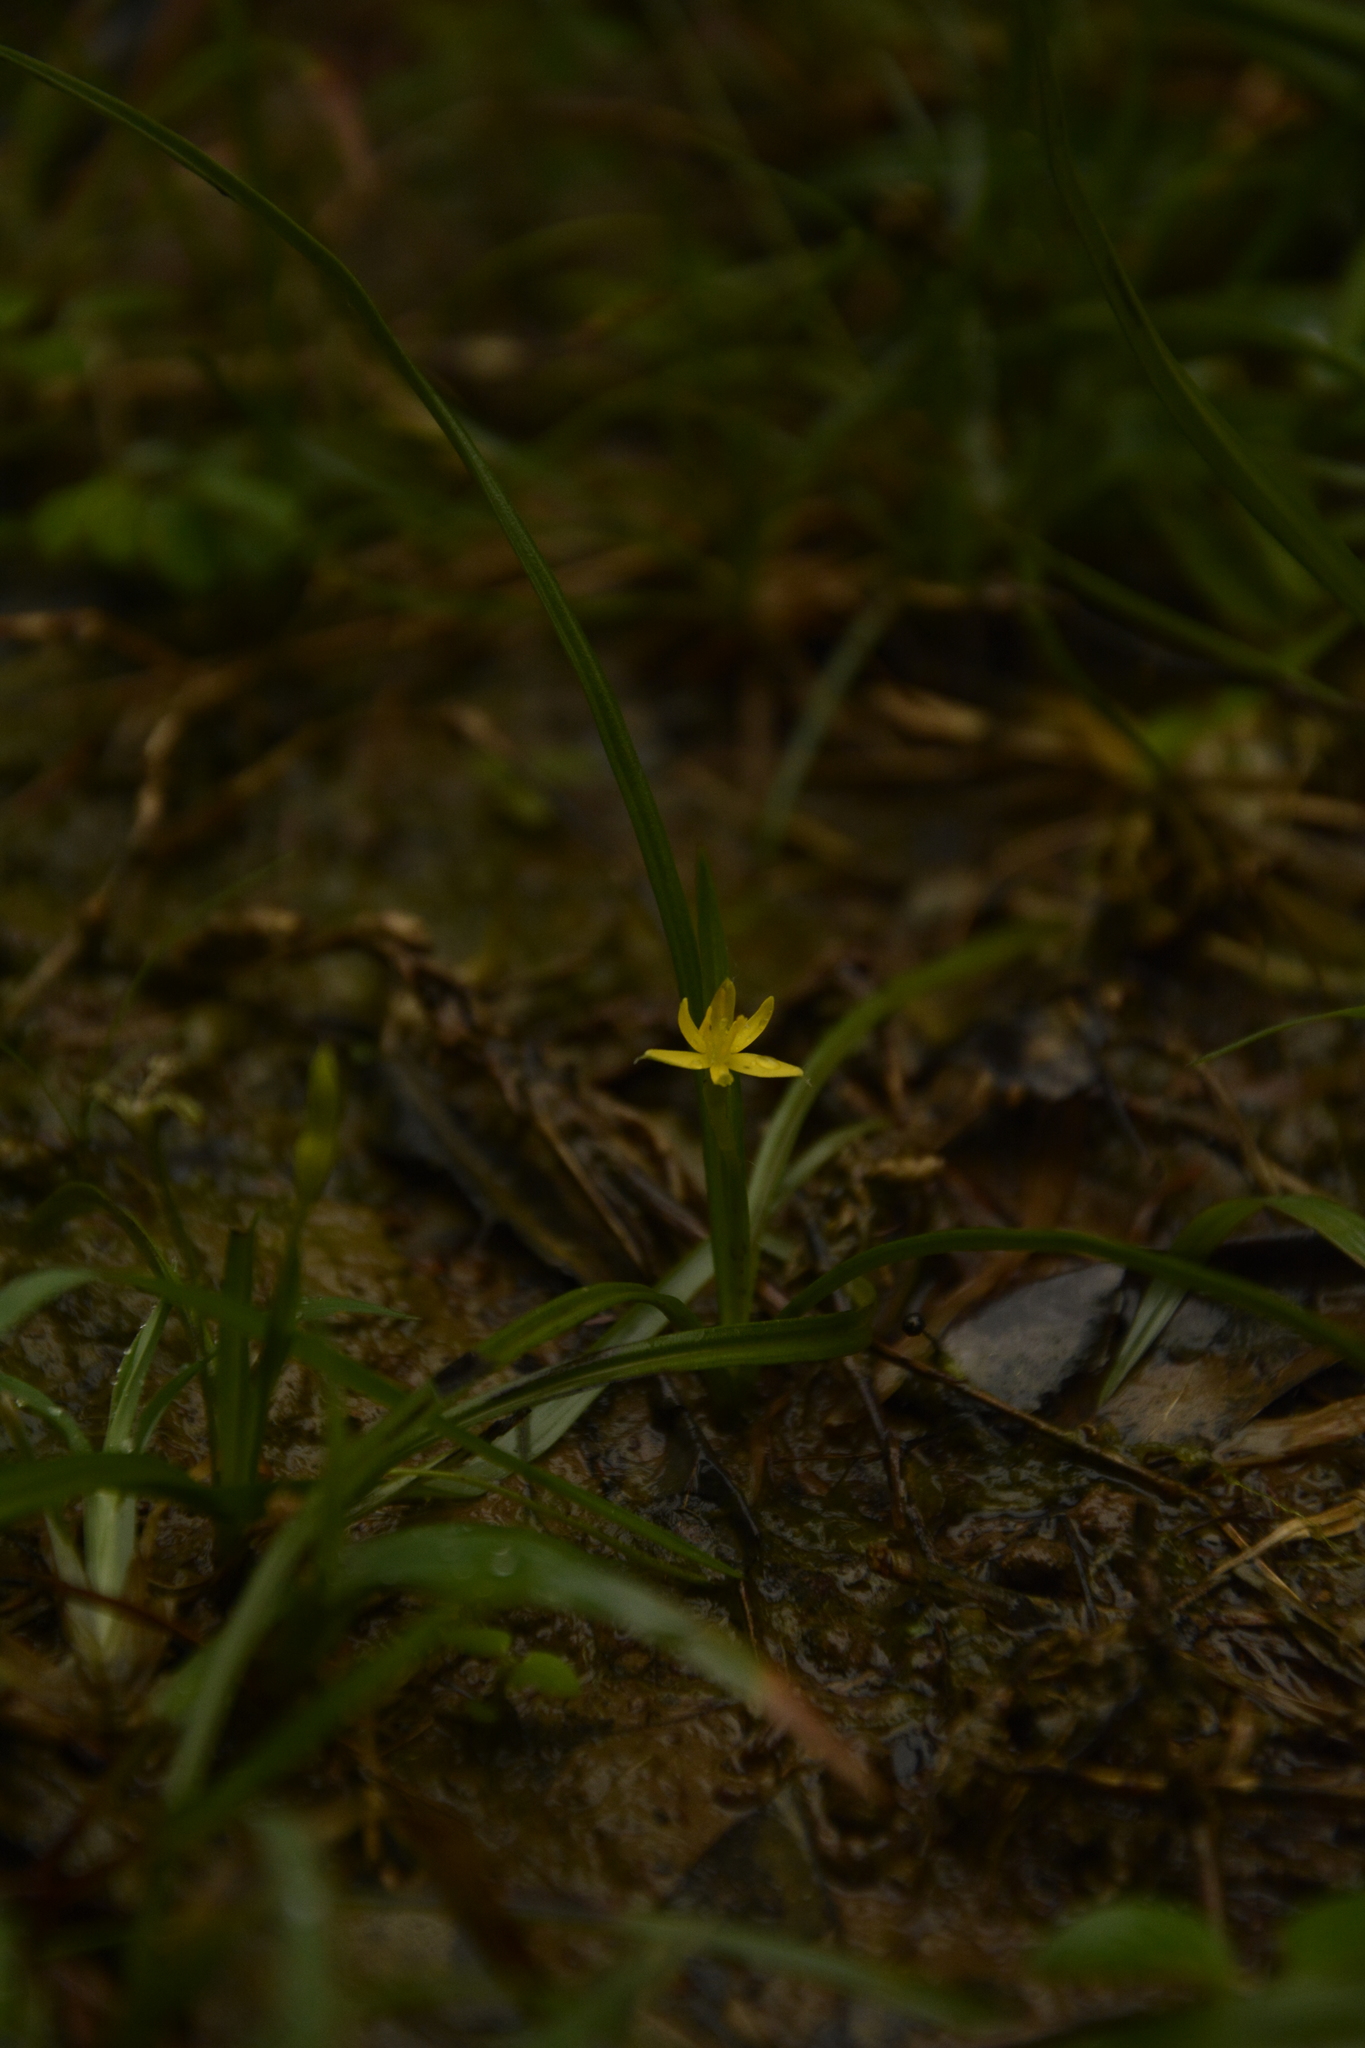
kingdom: Plantae
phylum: Tracheophyta
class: Liliopsida
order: Asparagales
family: Hypoxidaceae
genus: Hypoxis
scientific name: Hypoxis aurea
